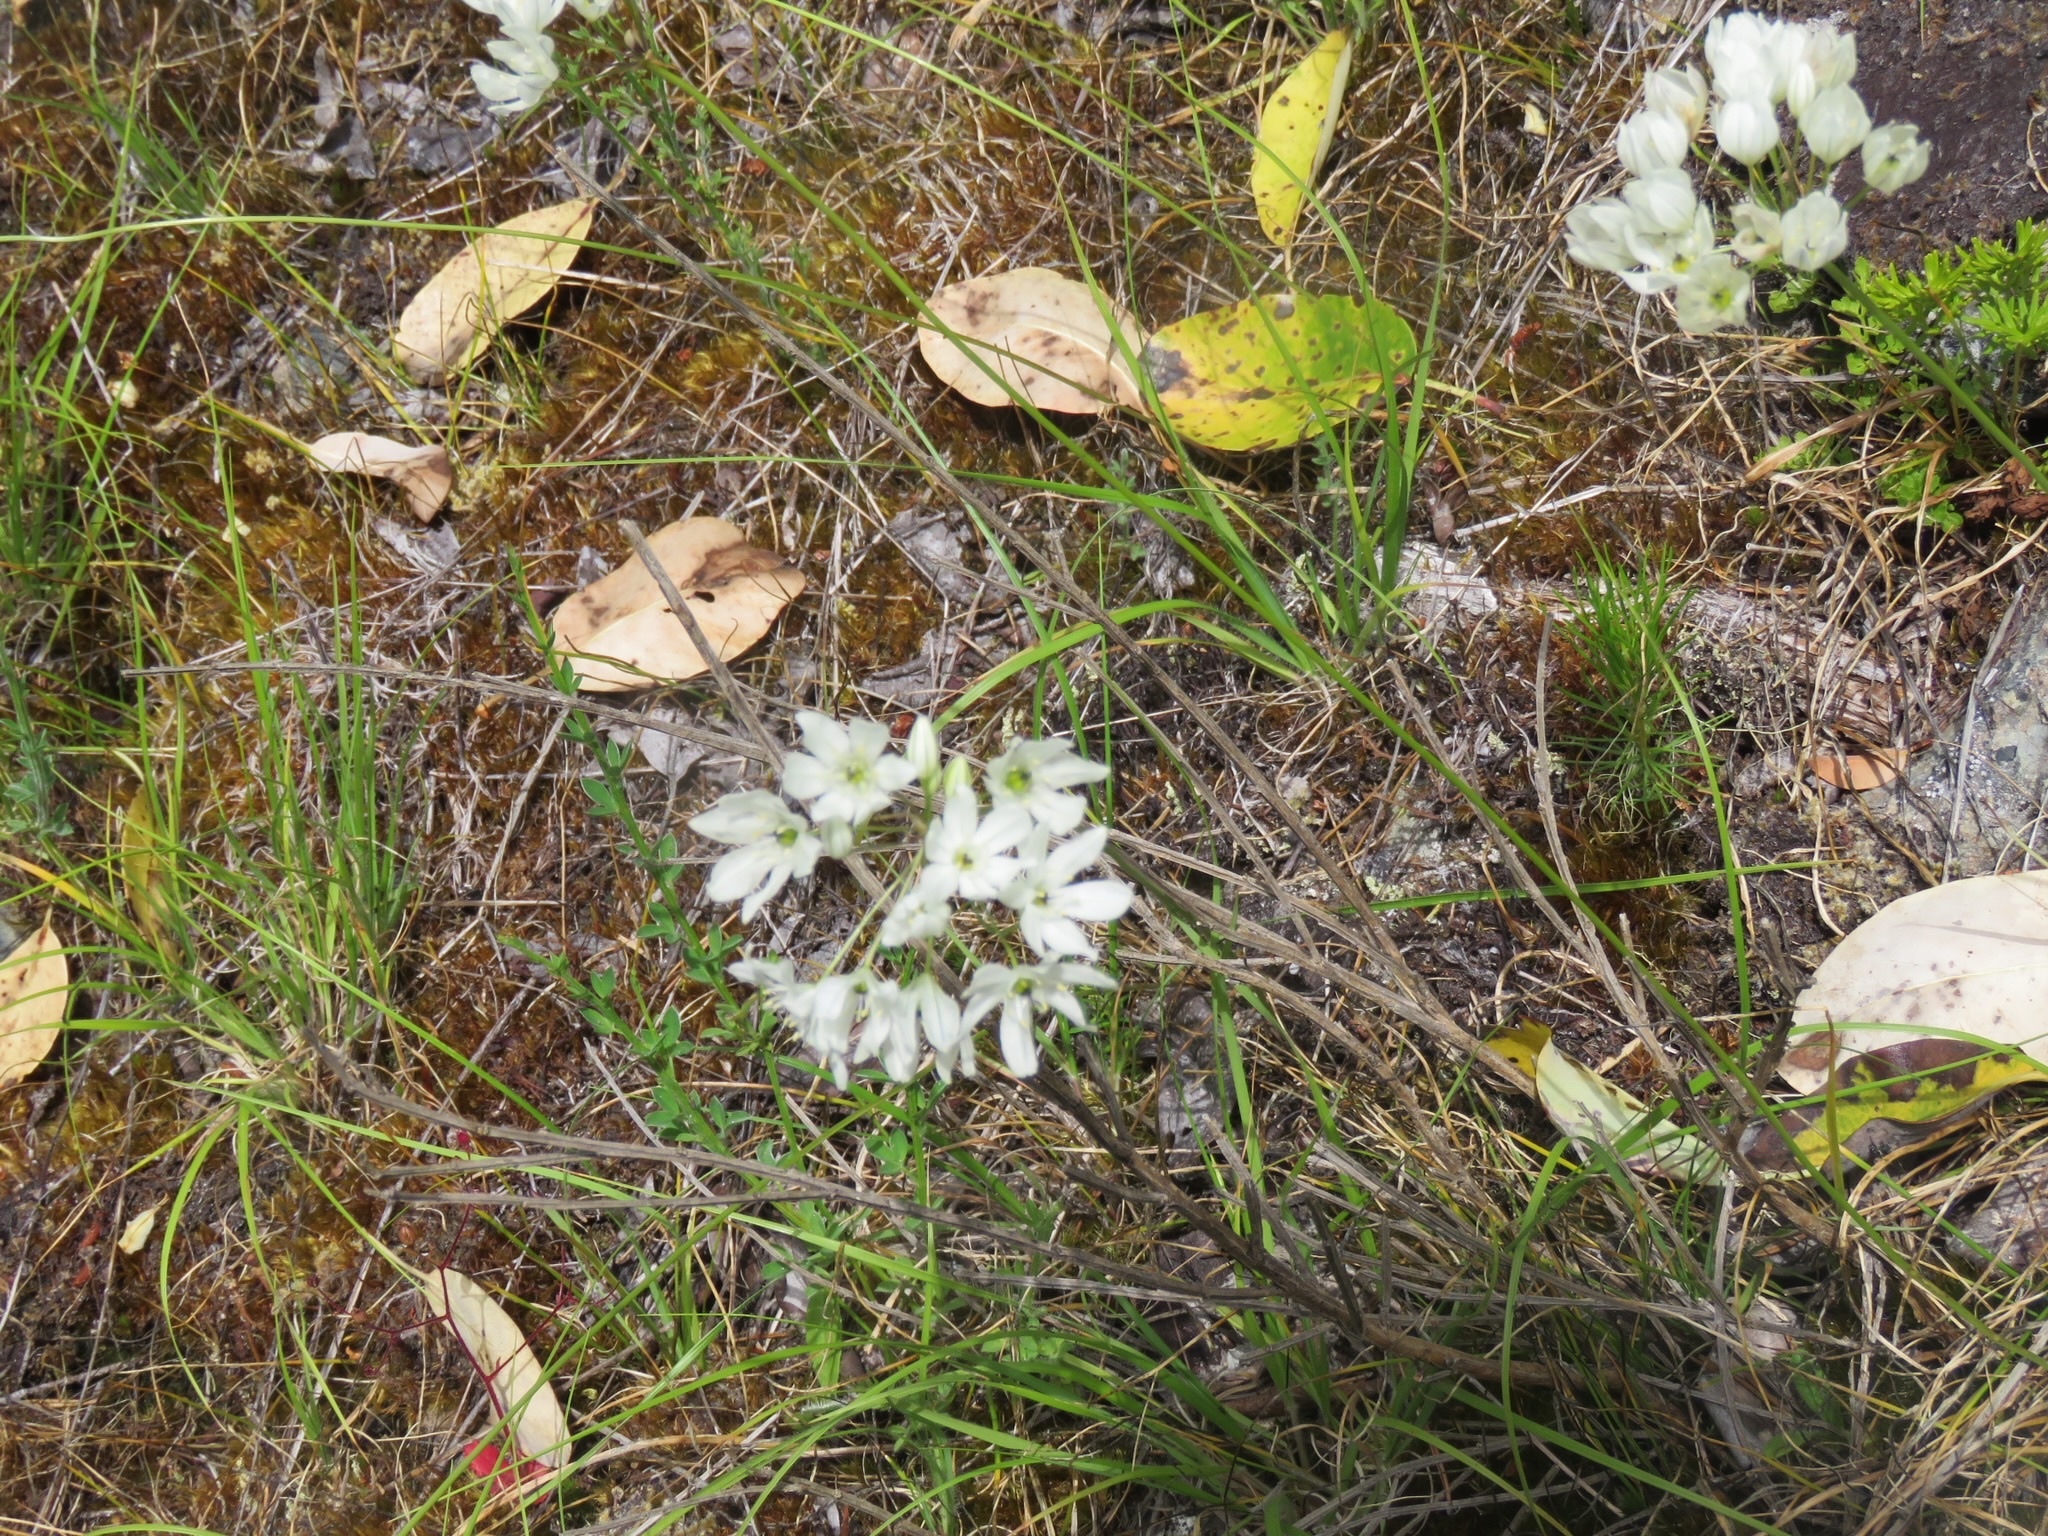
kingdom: Plantae
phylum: Tracheophyta
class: Liliopsida
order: Asparagales
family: Asparagaceae
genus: Triteleia
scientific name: Triteleia hyacinthina
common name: White brodiaea
